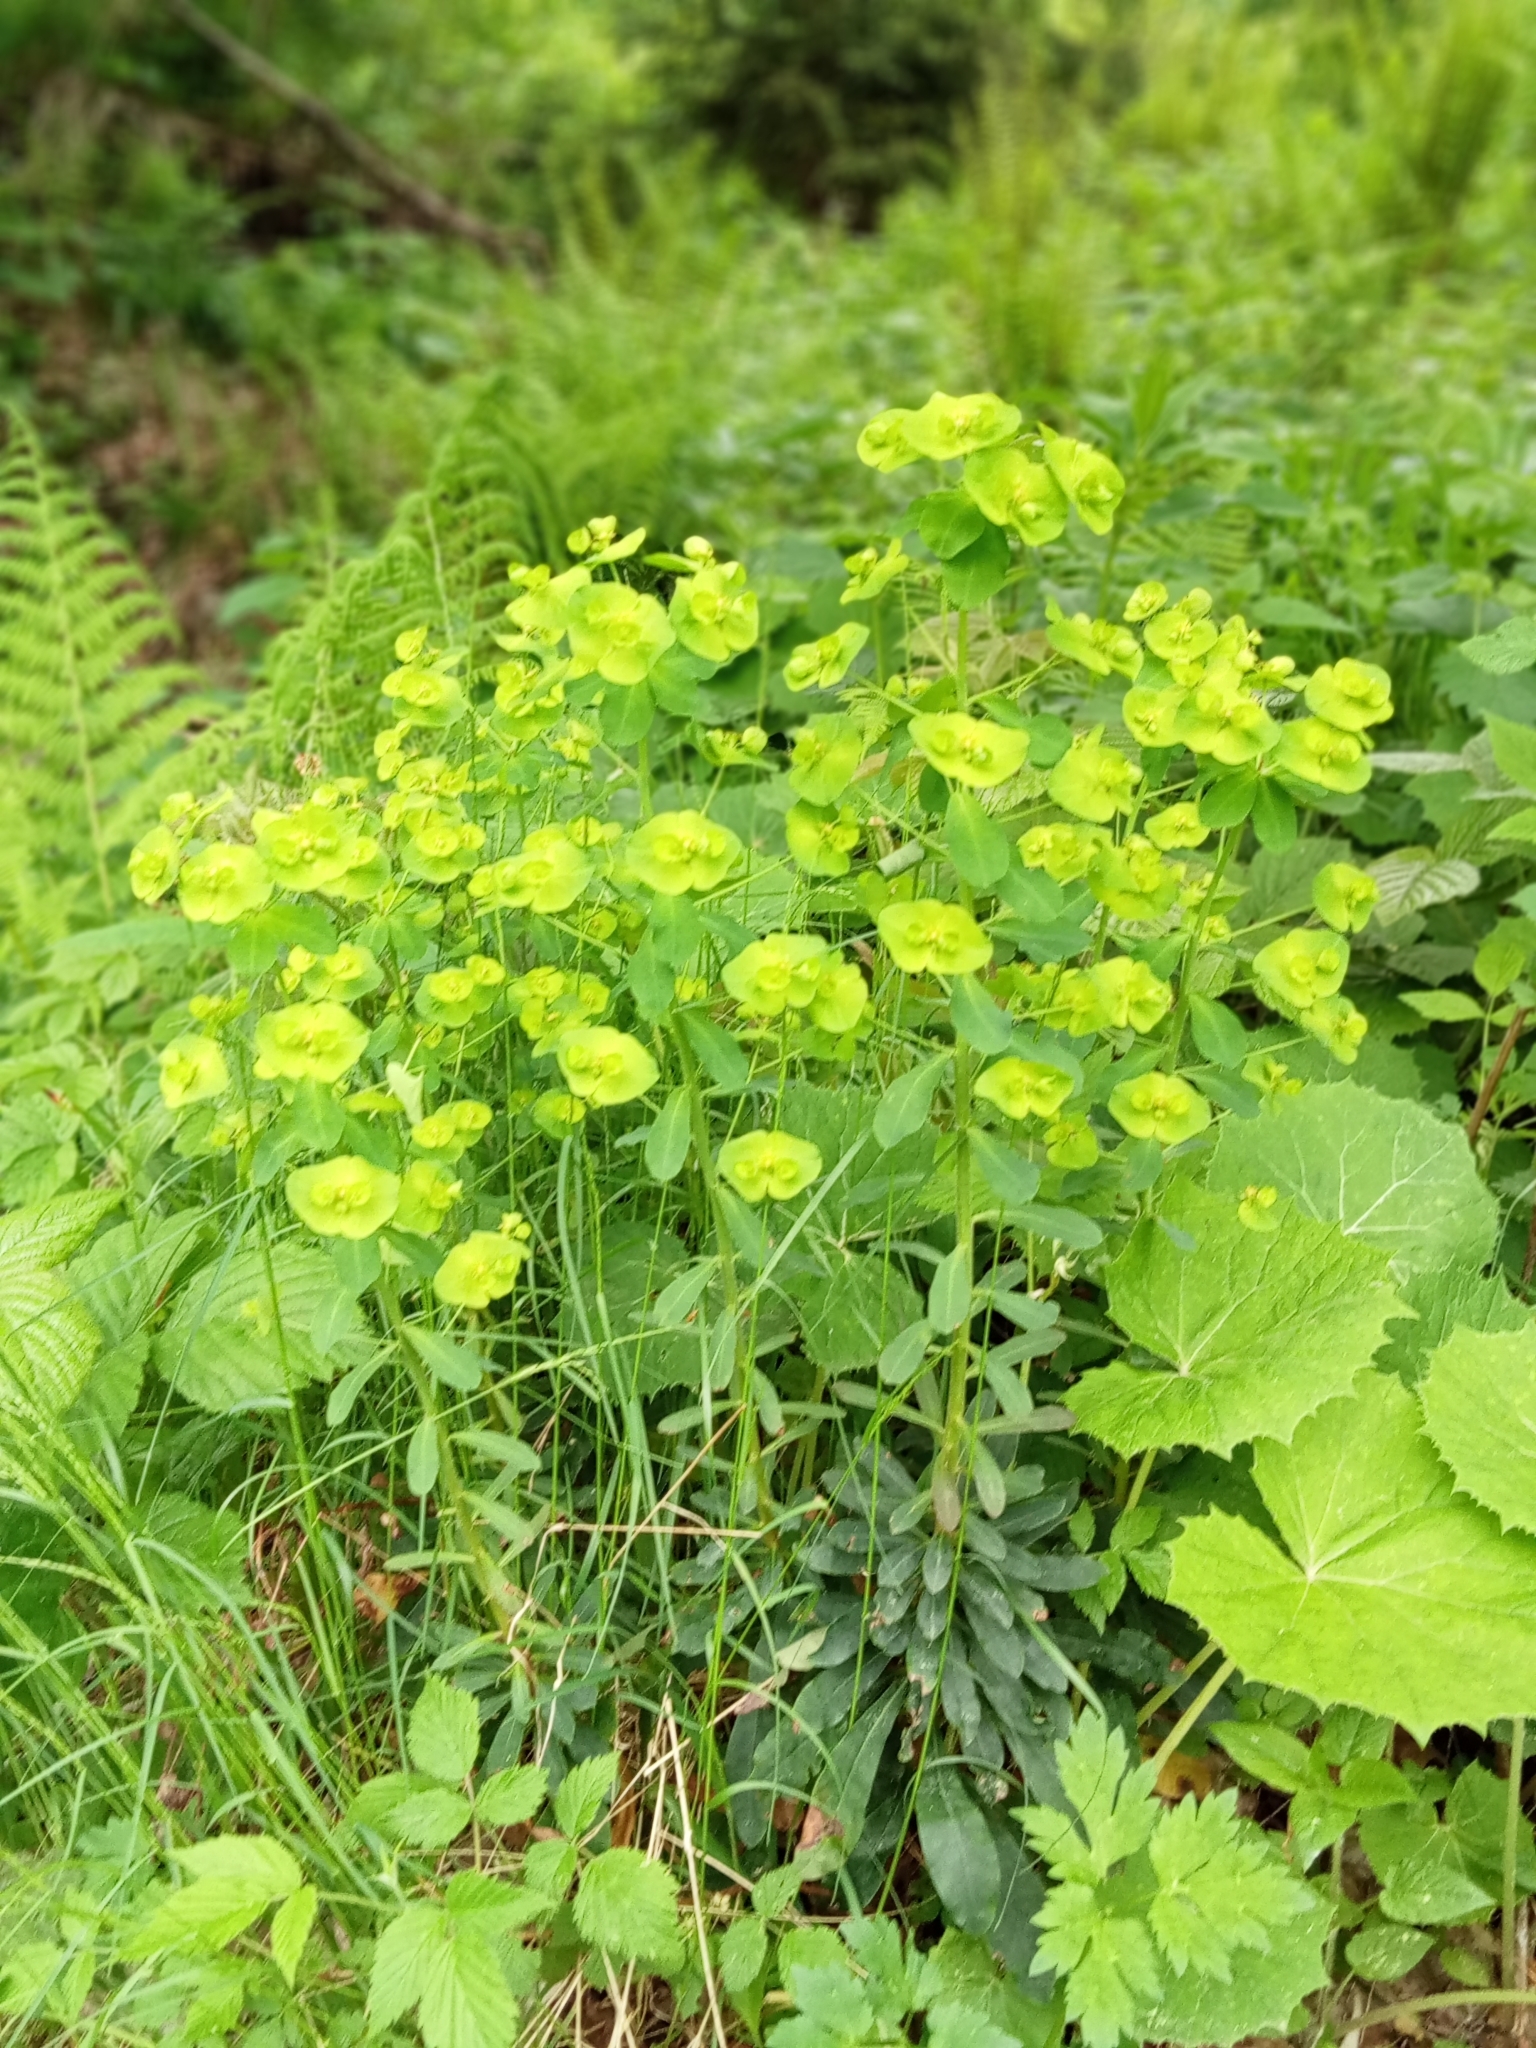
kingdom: Plantae
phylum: Tracheophyta
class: Magnoliopsida
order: Malpighiales
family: Euphorbiaceae
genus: Euphorbia
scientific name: Euphorbia amygdaloides
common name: Wood spurge
